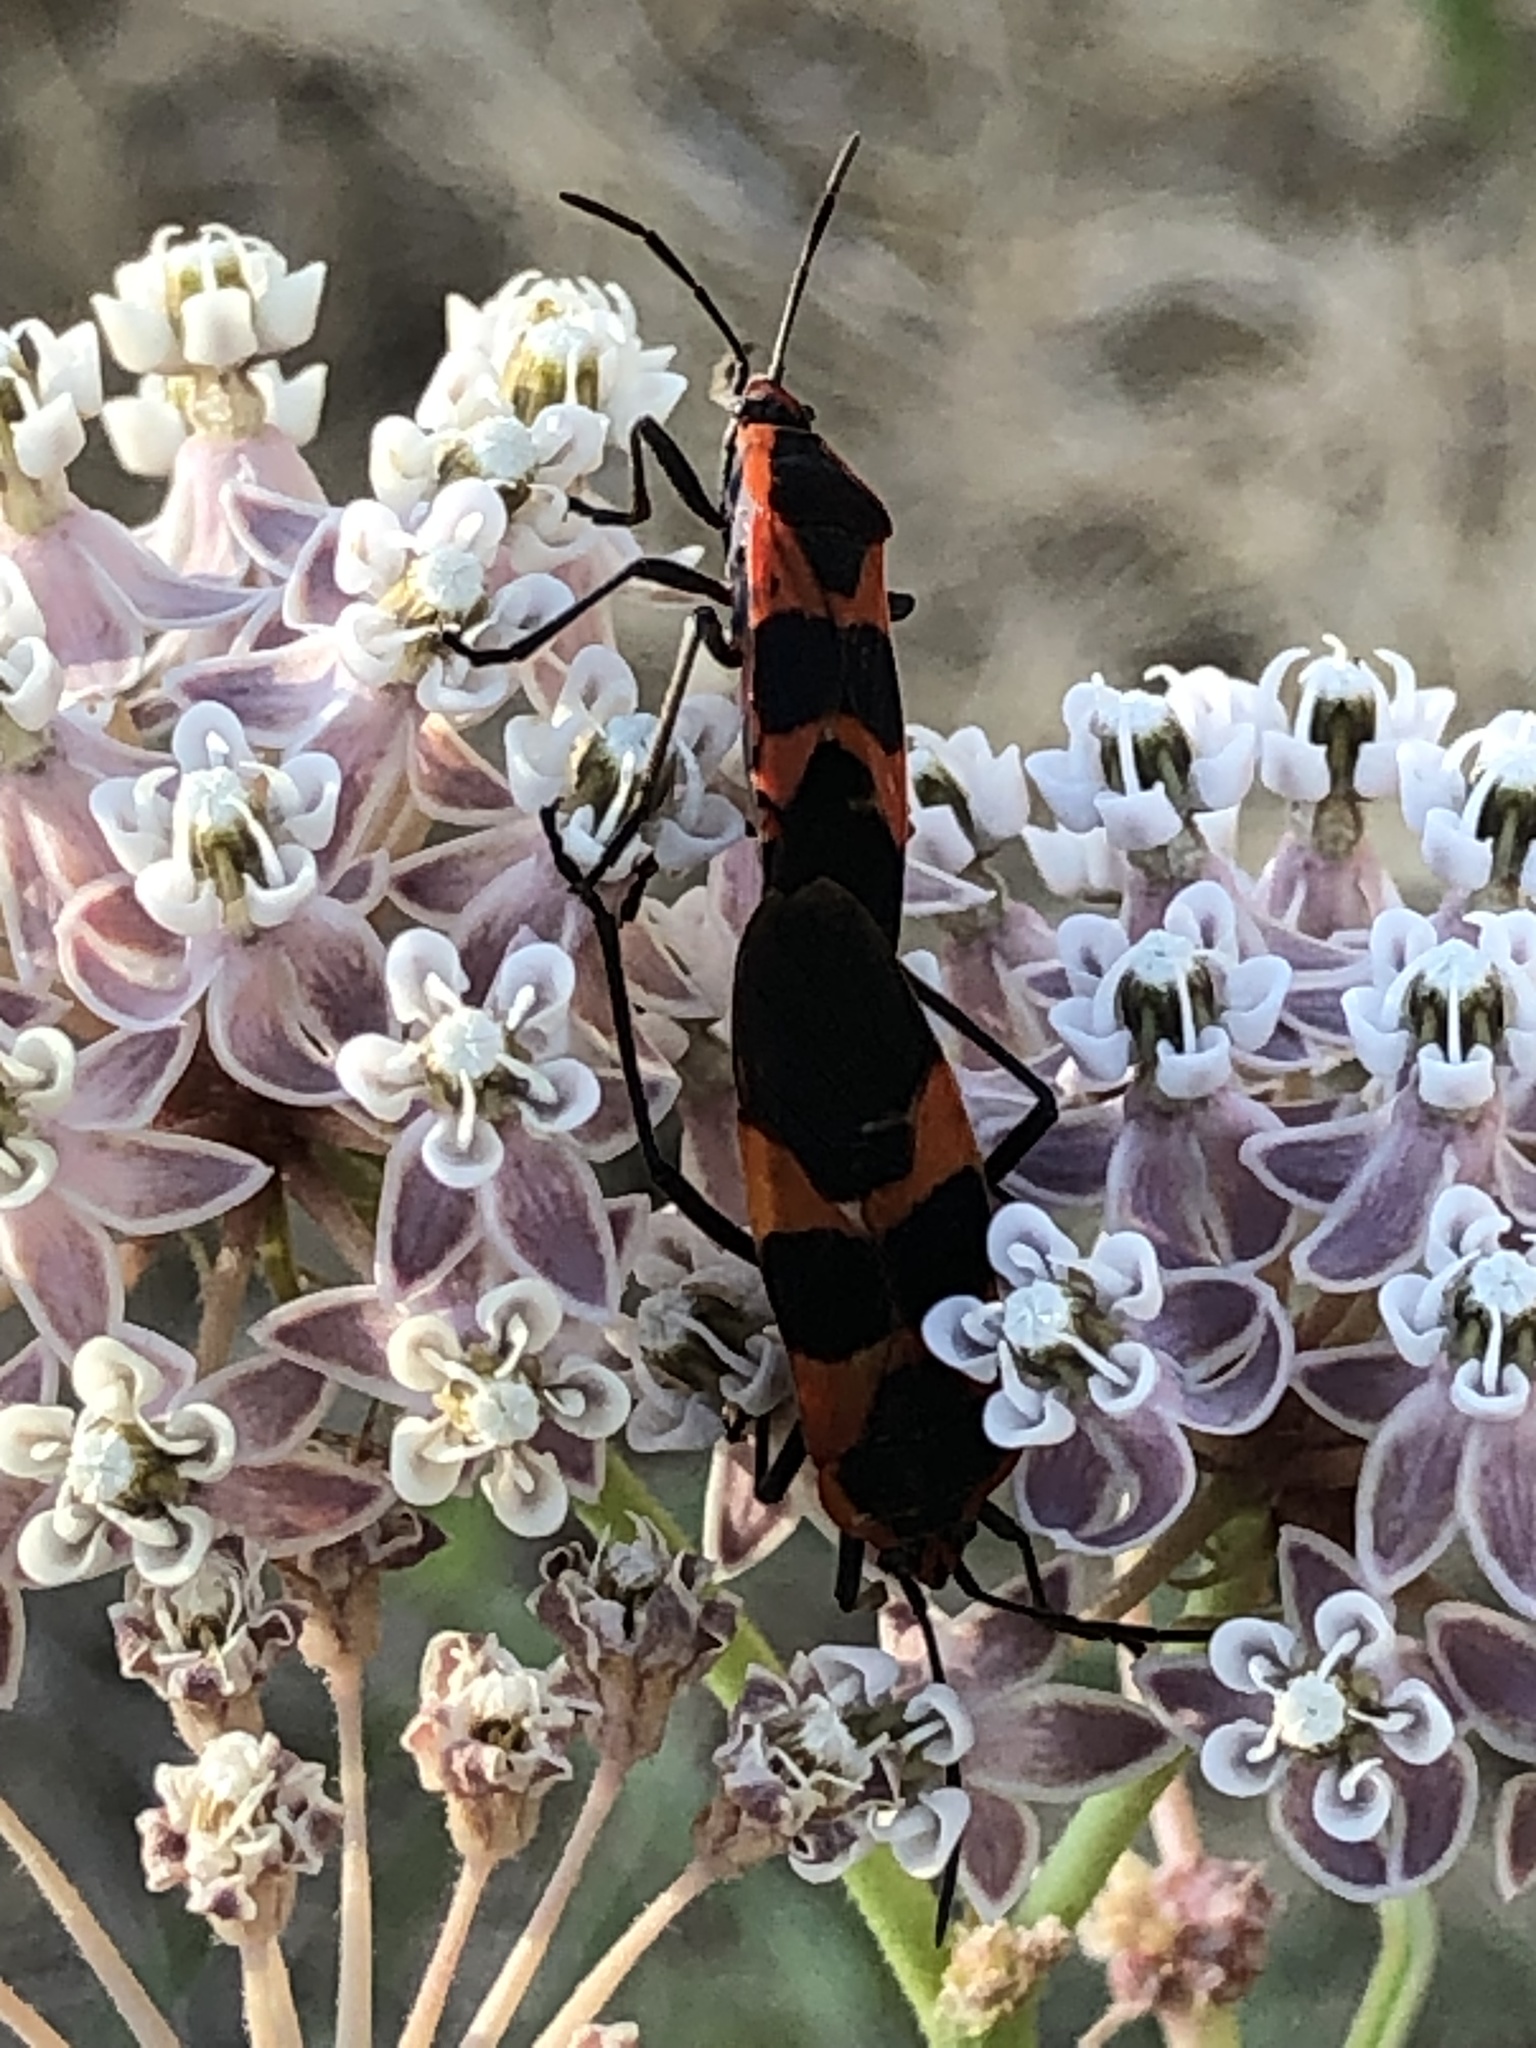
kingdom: Animalia
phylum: Arthropoda
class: Insecta
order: Hemiptera
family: Lygaeidae
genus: Oncopeltus
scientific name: Oncopeltus fasciatus
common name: Large milkweed bug
